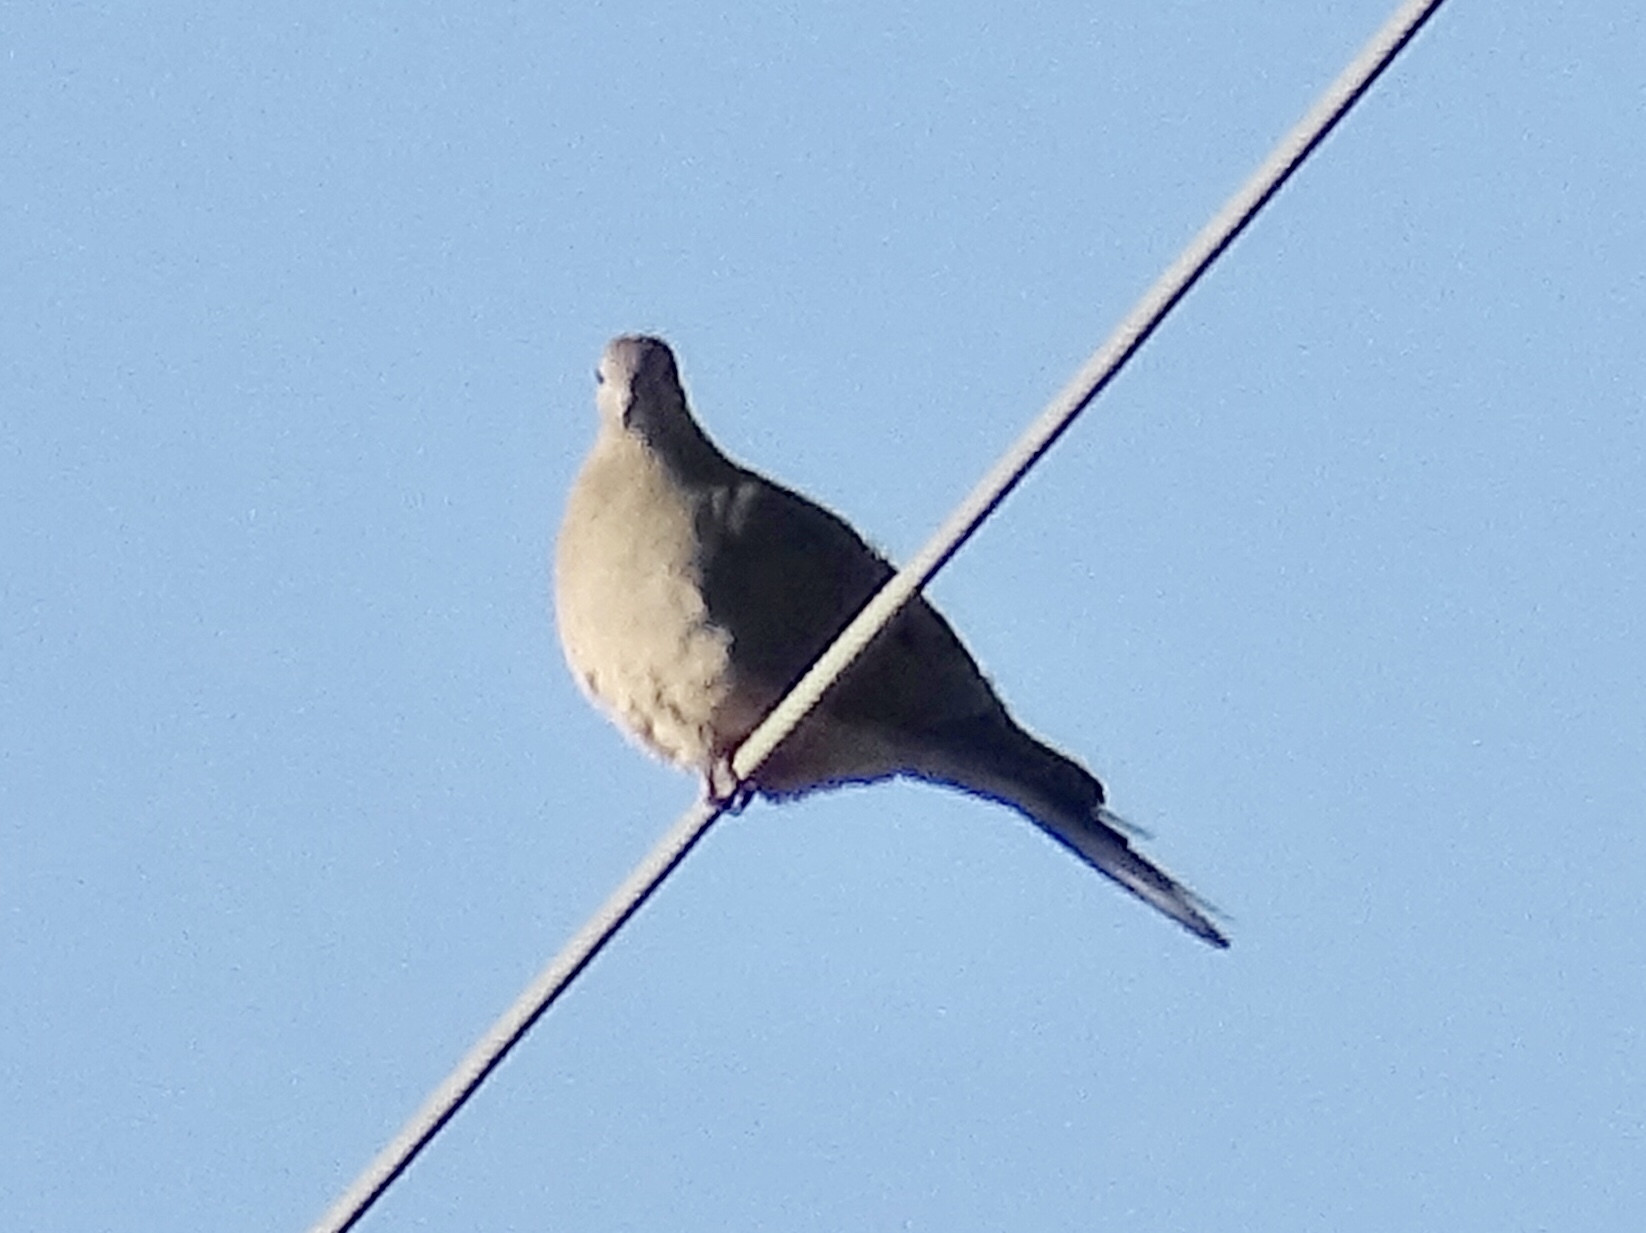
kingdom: Animalia
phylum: Chordata
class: Aves
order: Columbiformes
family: Columbidae
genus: Zenaida
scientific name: Zenaida macroura
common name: Mourning dove
